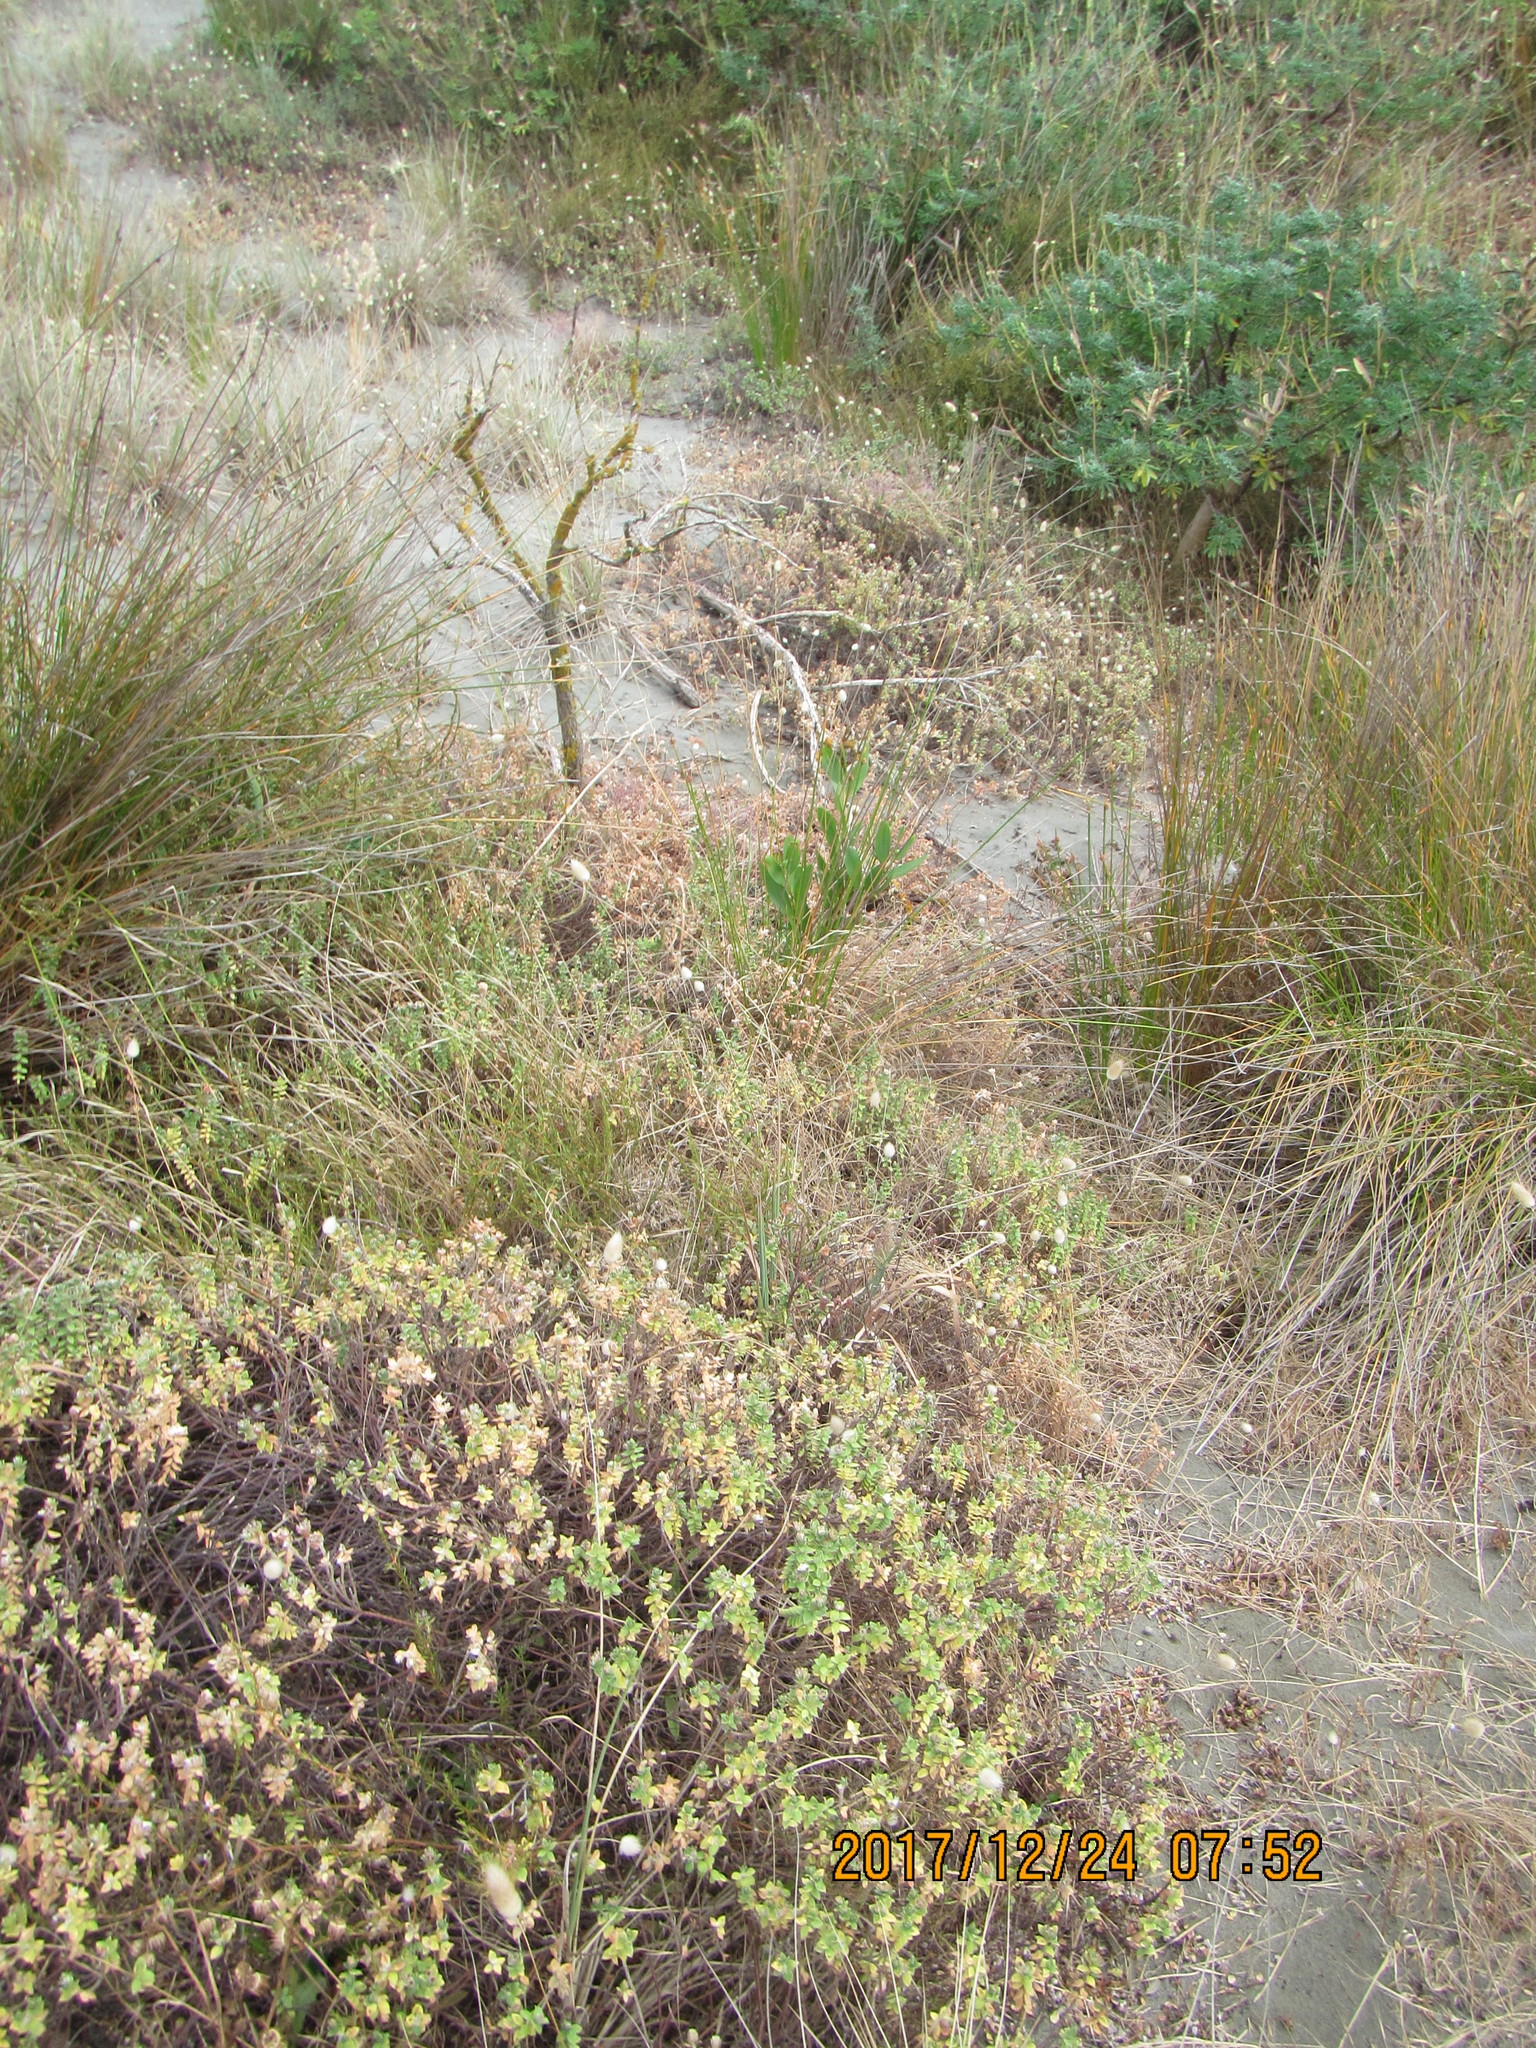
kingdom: Plantae
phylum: Tracheophyta
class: Magnoliopsida
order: Malvales
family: Thymelaeaceae
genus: Pimelea
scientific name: Pimelea villosa
